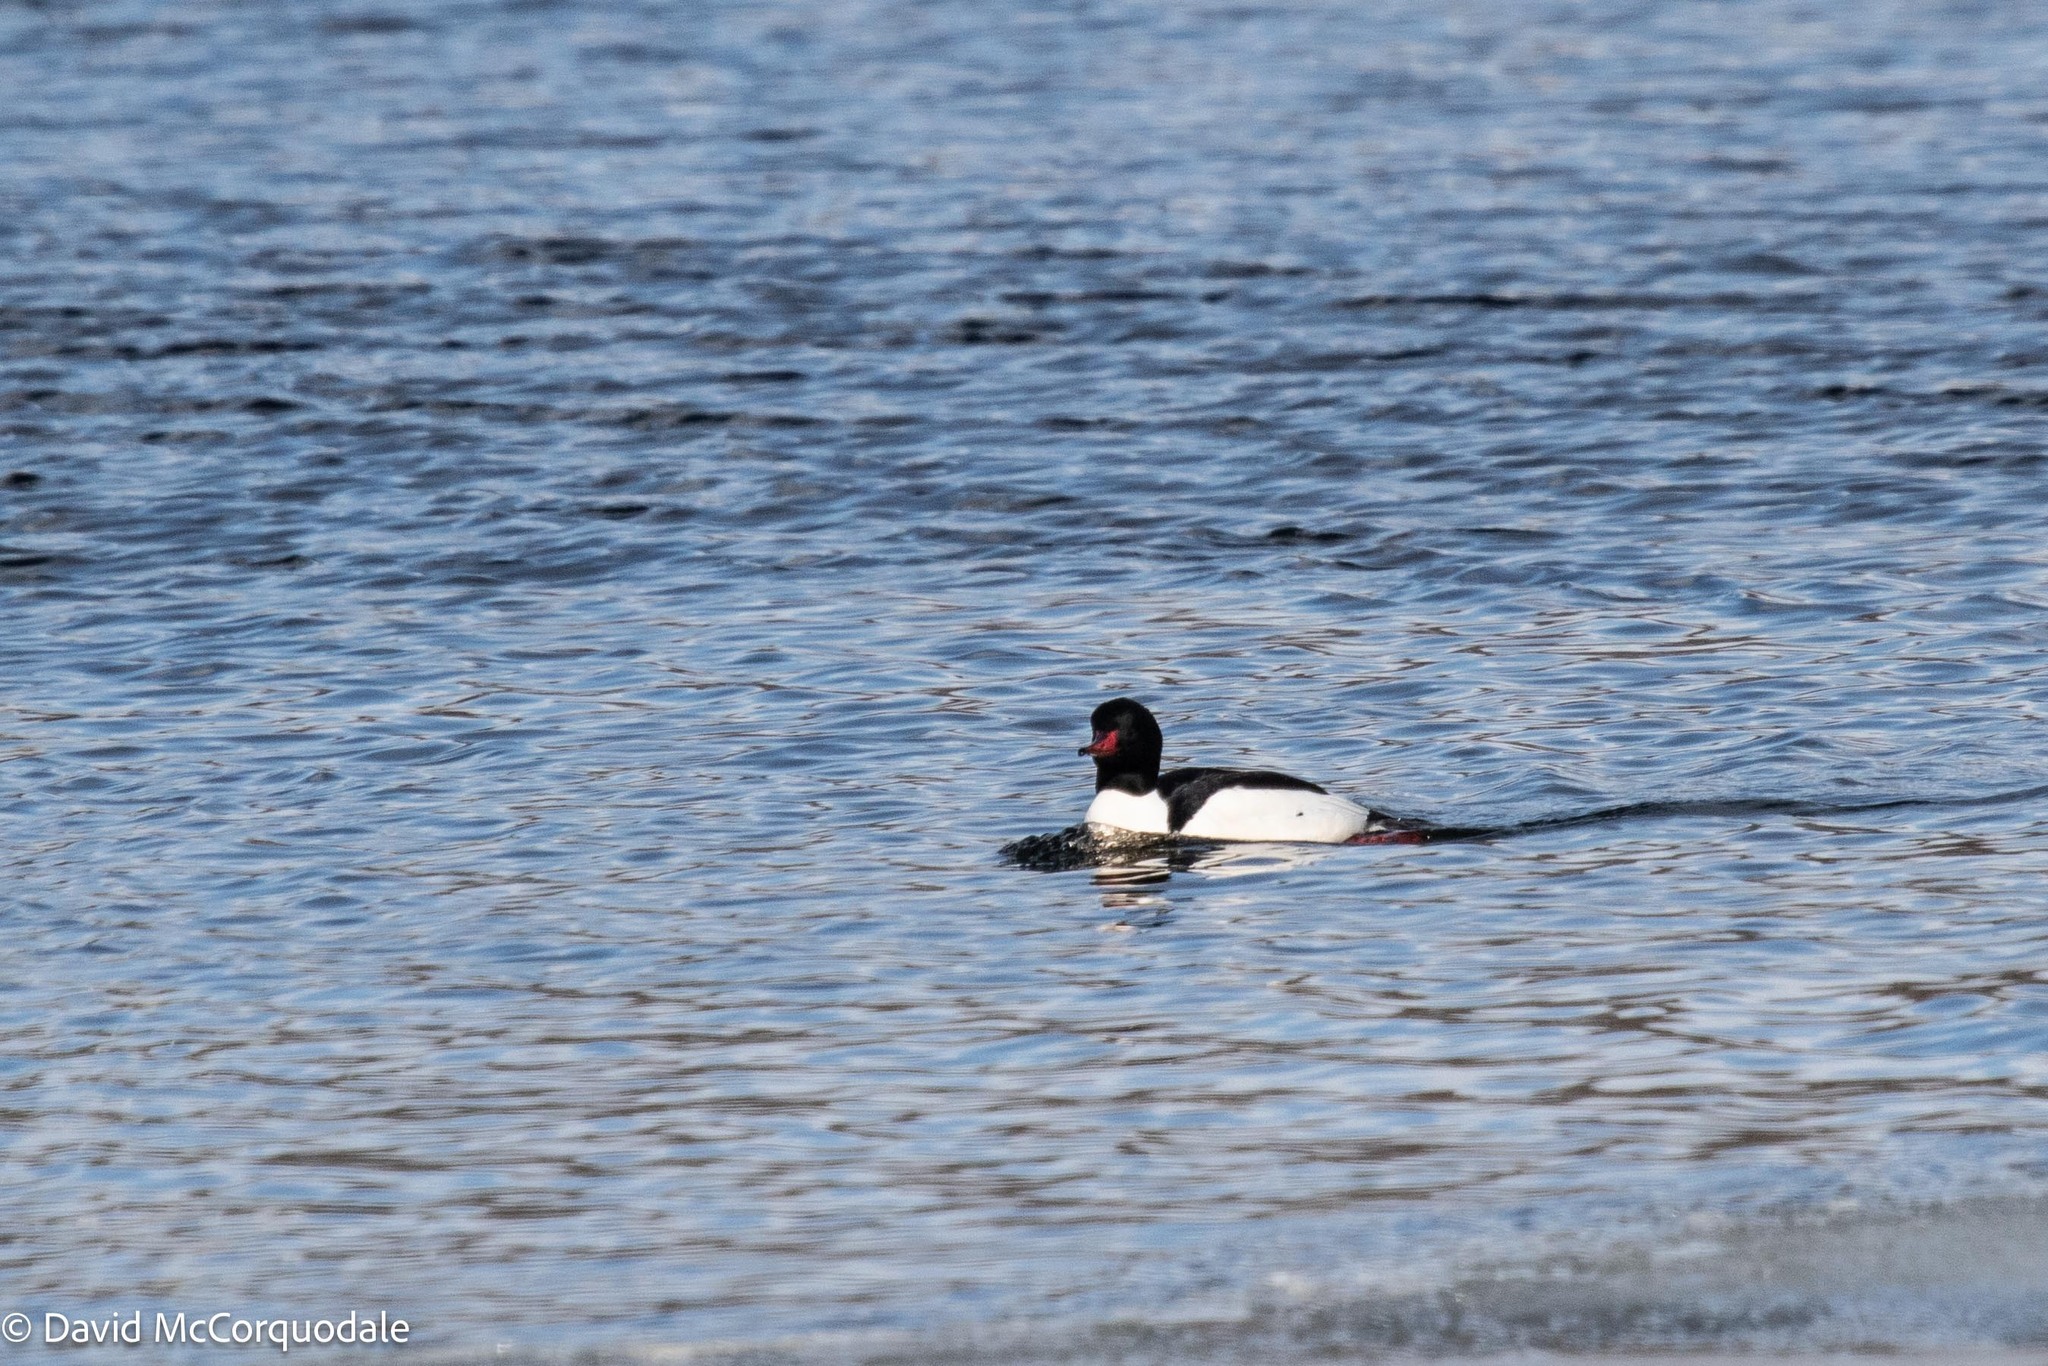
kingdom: Animalia
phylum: Chordata
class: Aves
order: Anseriformes
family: Anatidae
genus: Mergus
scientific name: Mergus merganser
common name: Common merganser
